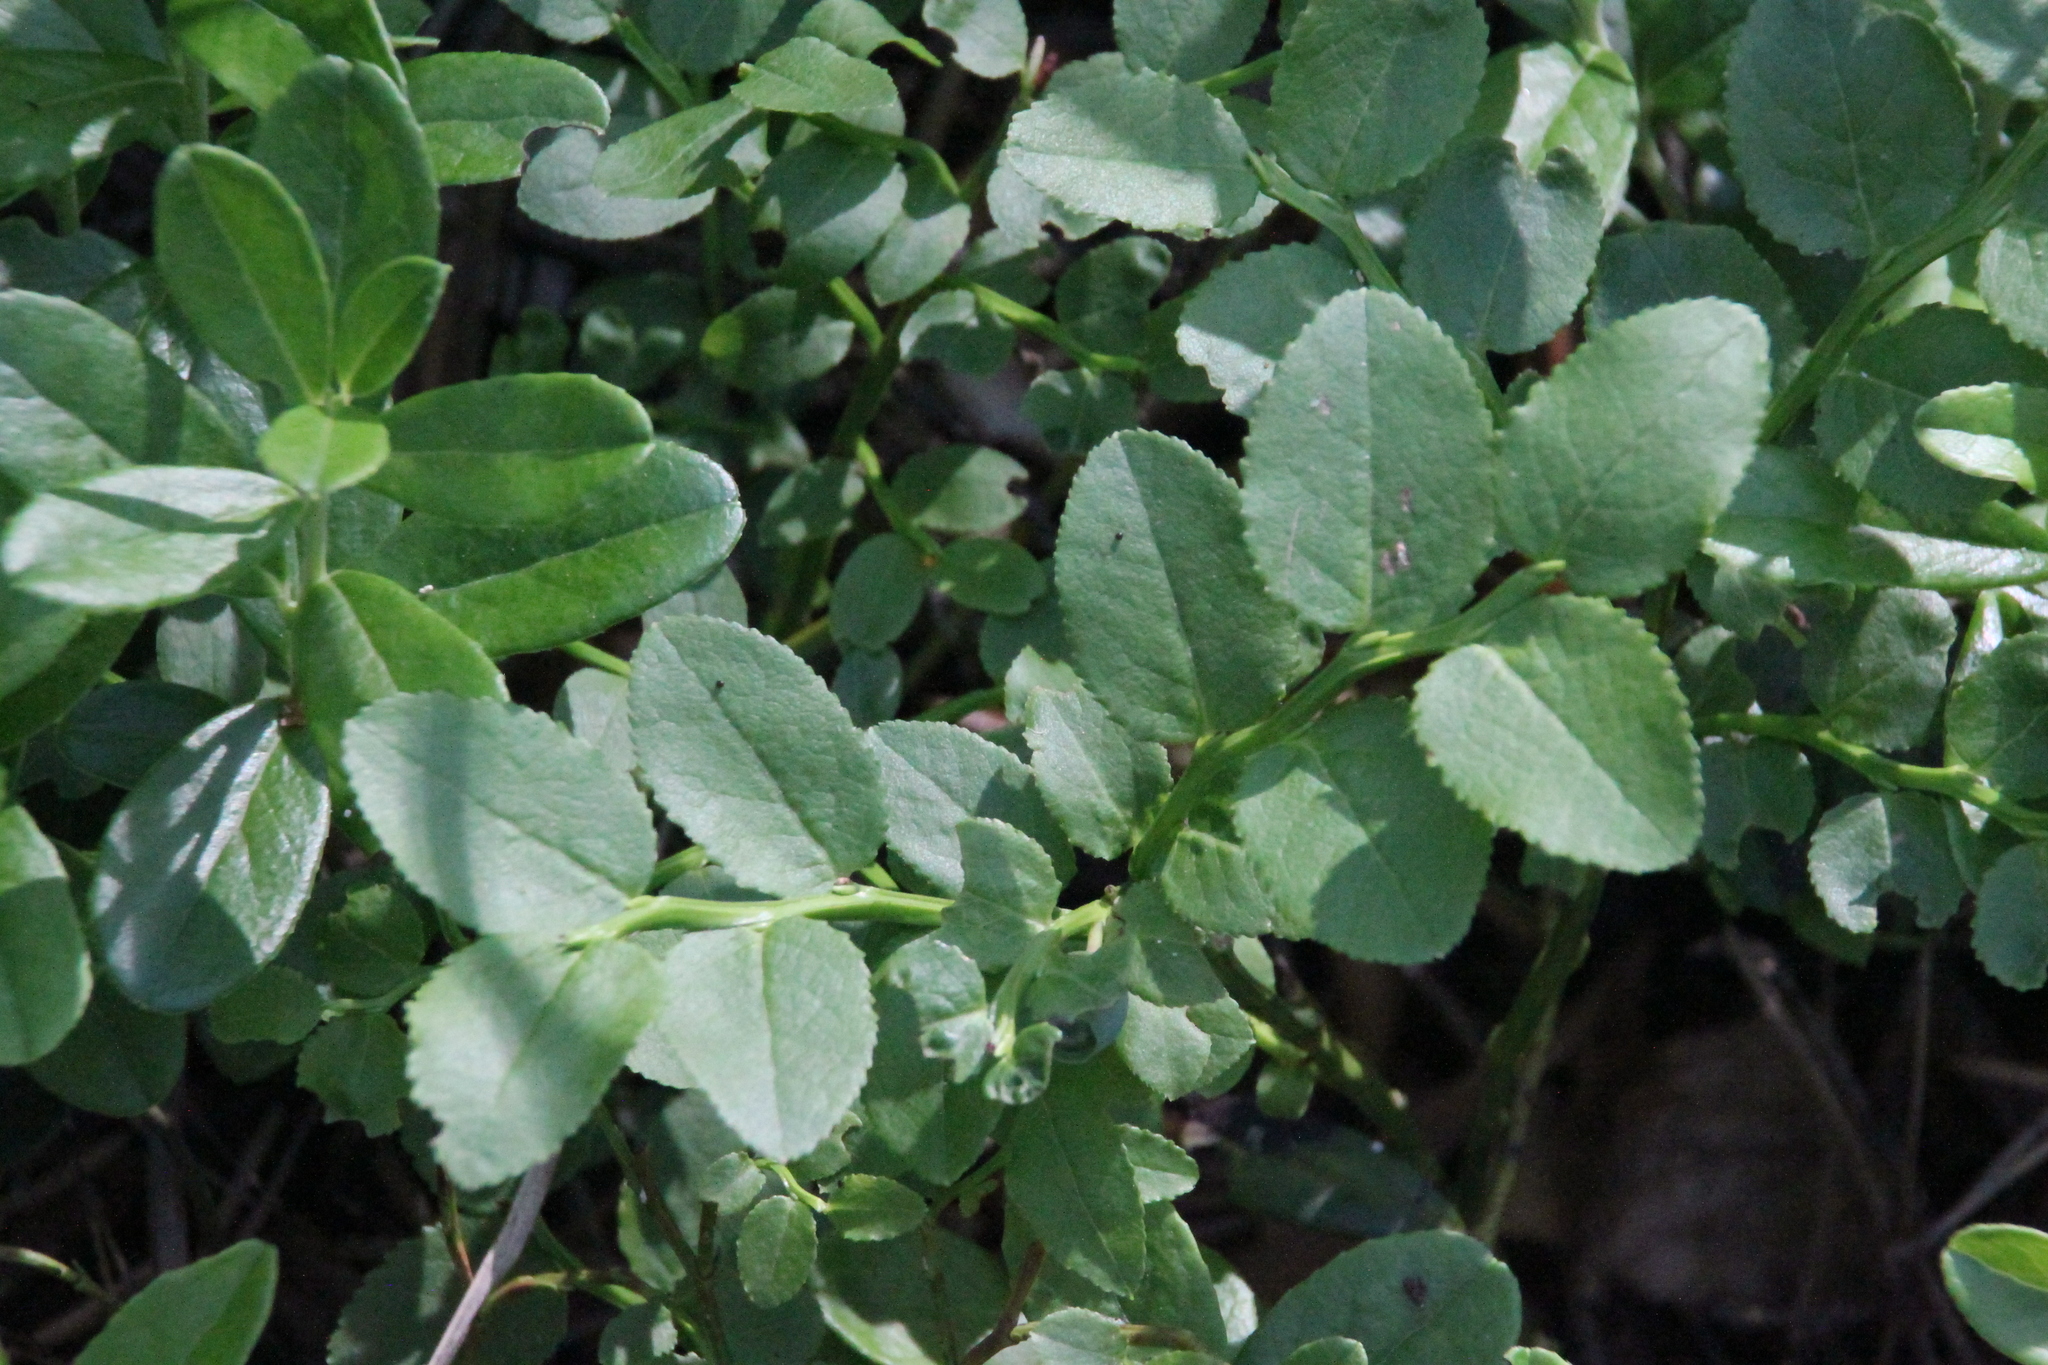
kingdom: Plantae
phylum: Tracheophyta
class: Magnoliopsida
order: Ericales
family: Ericaceae
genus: Vaccinium
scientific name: Vaccinium myrtillus
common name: Bilberry
